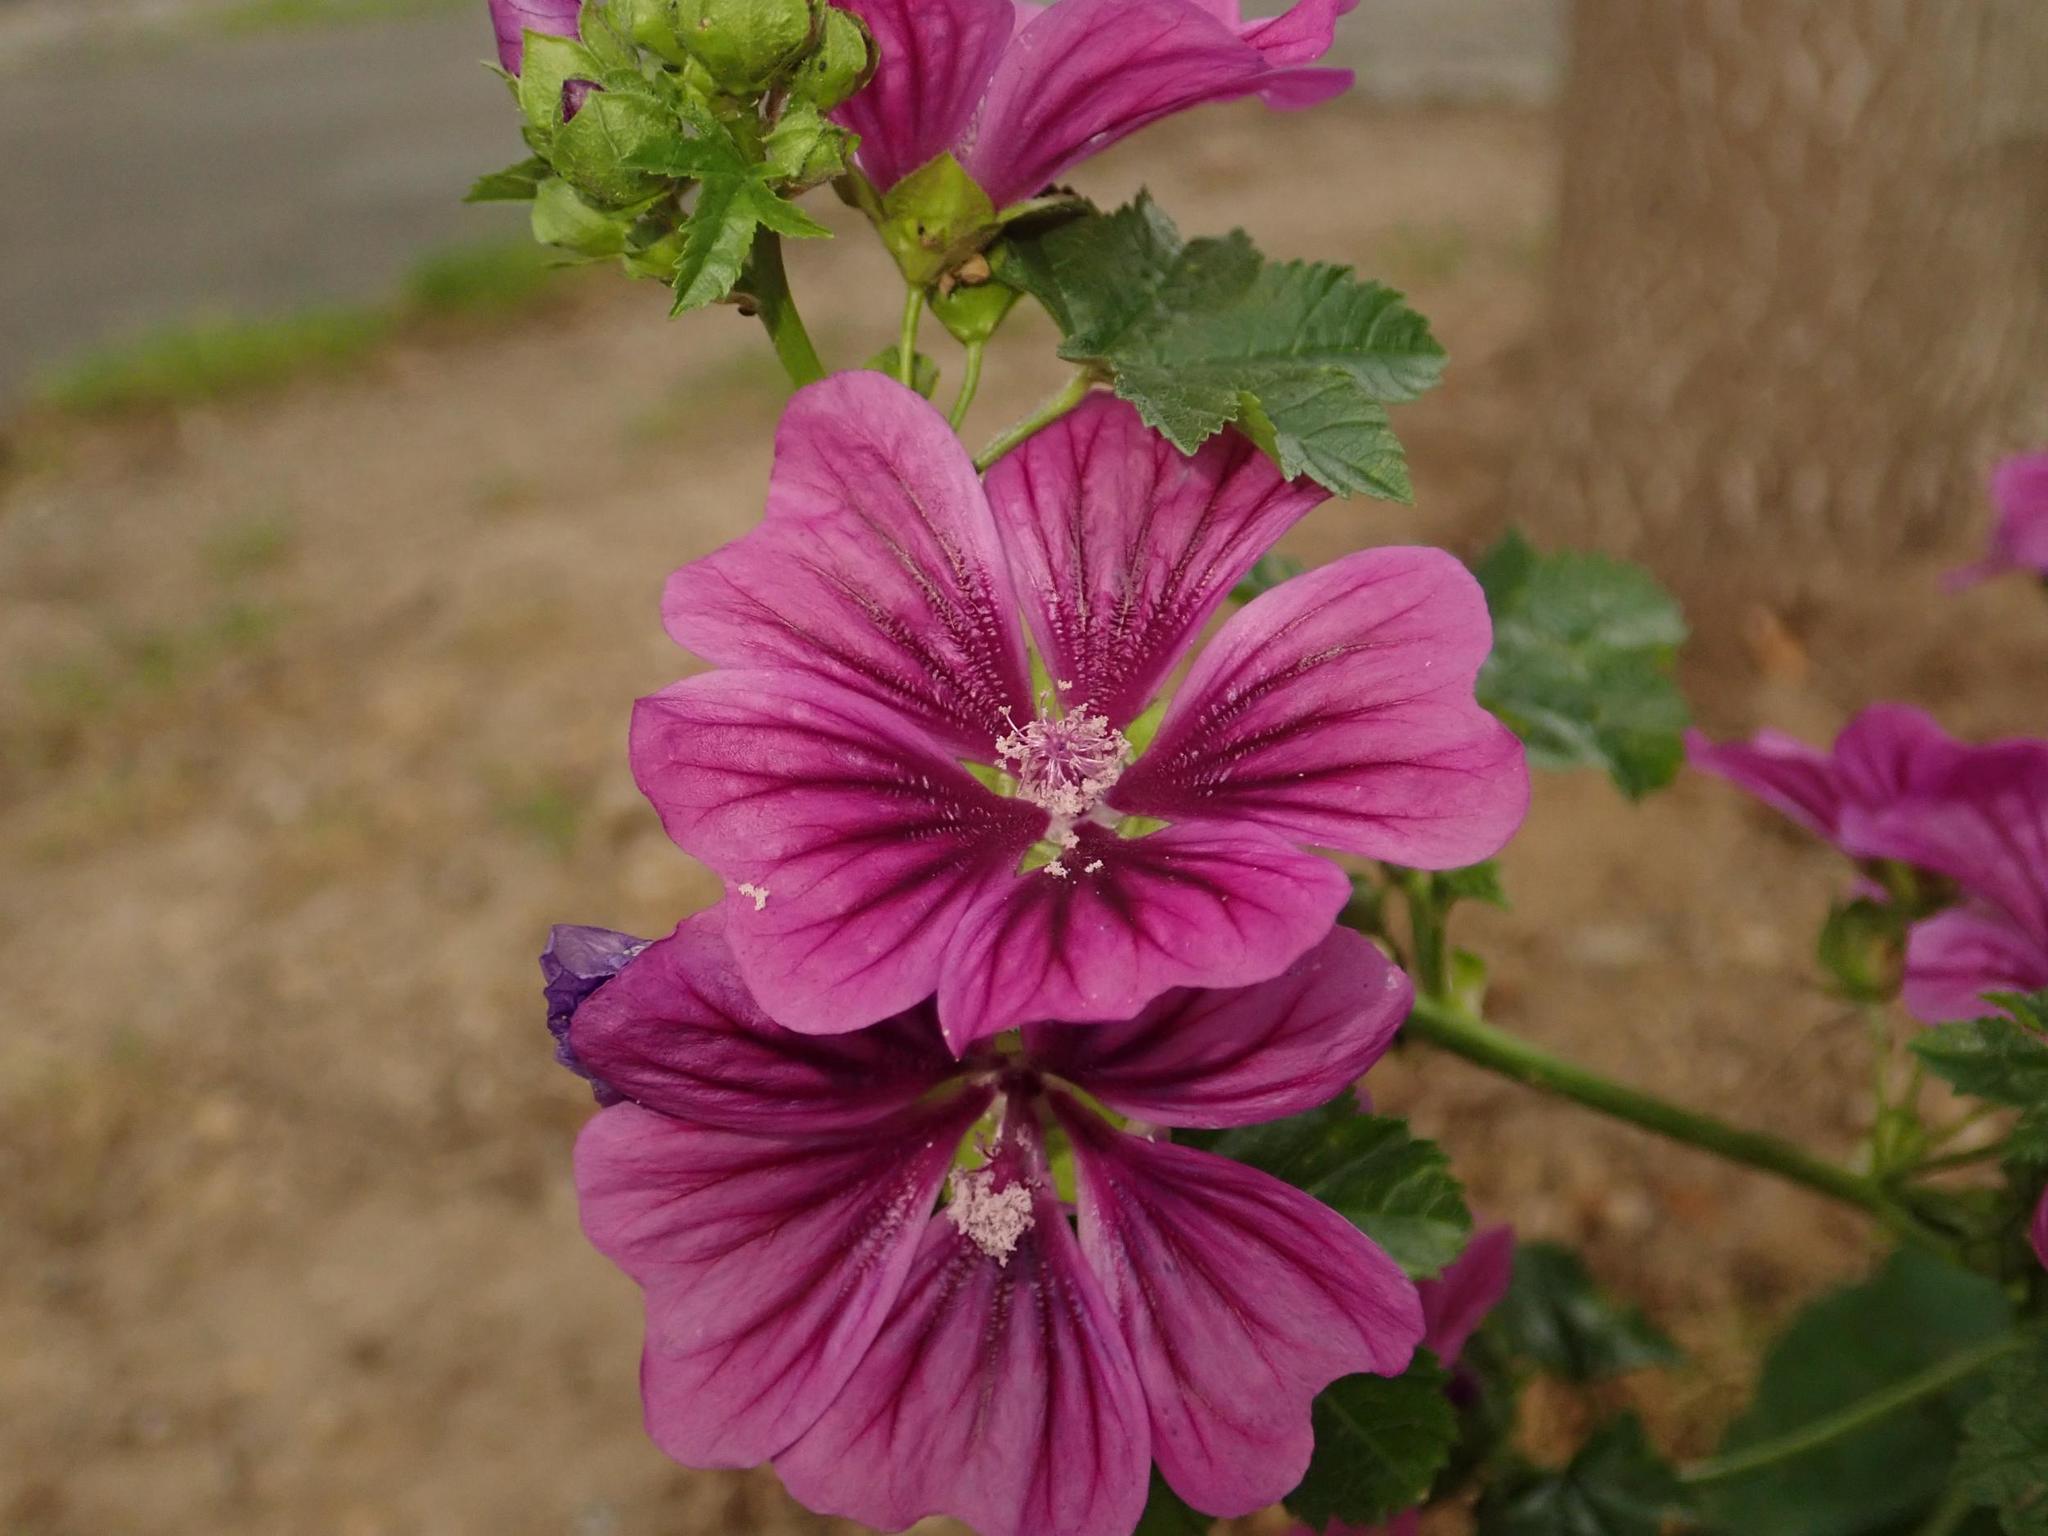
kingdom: Plantae
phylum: Tracheophyta
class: Magnoliopsida
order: Malvales
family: Malvaceae
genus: Malva
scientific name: Malva sylvestris
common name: Common mallow
